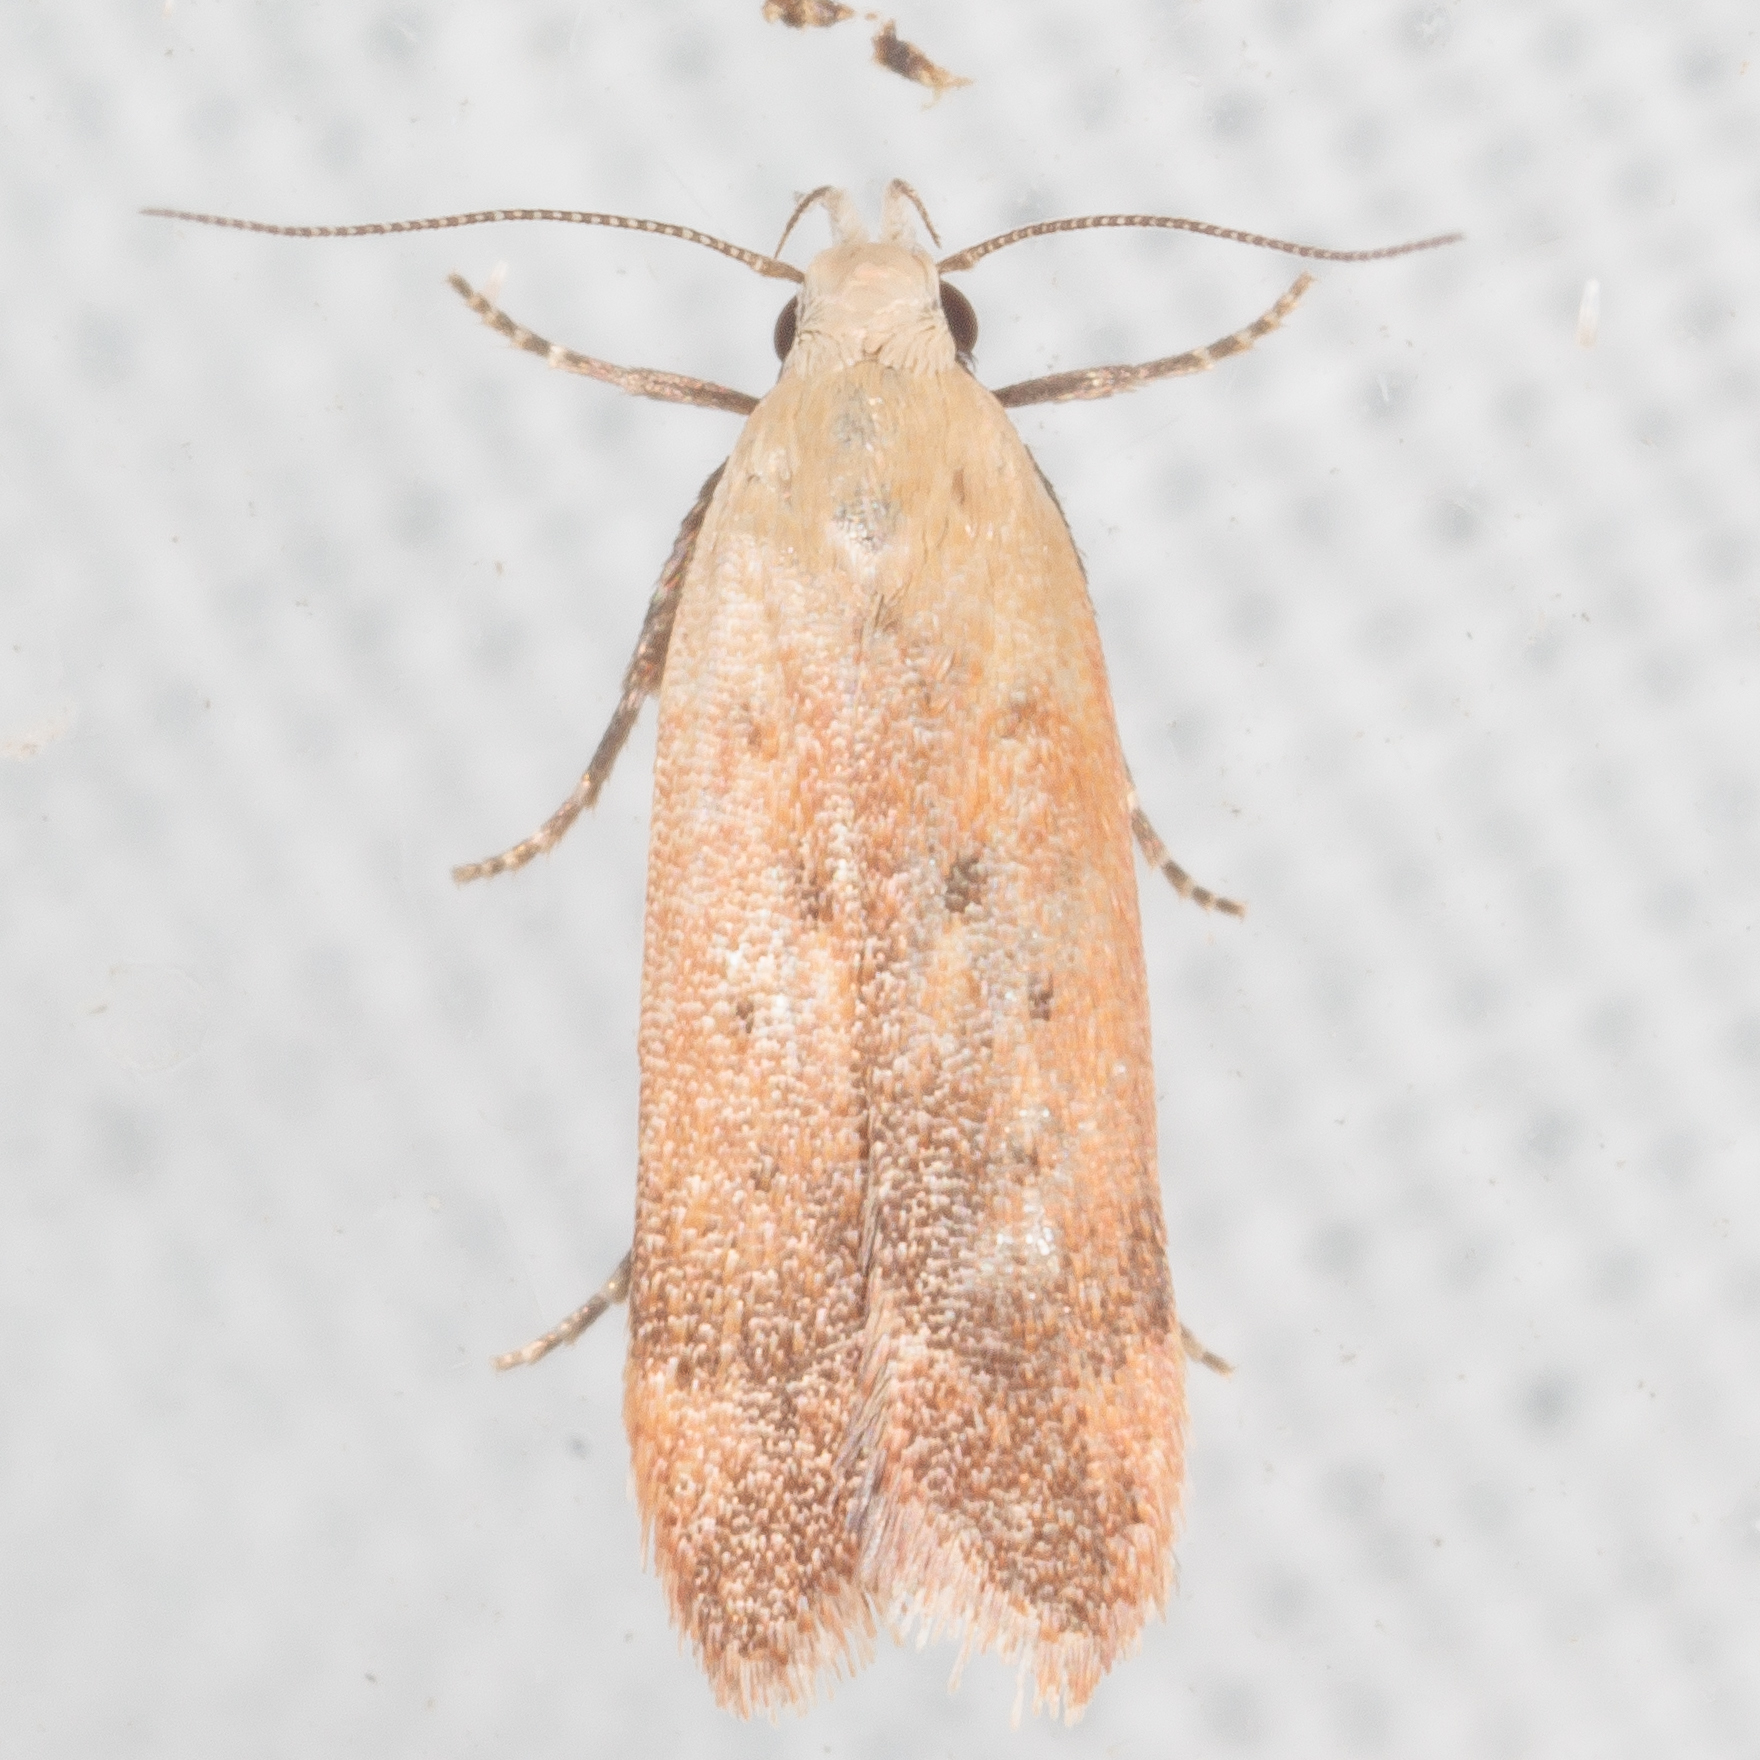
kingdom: Animalia
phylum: Arthropoda
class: Insecta
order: Lepidoptera
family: Gelechiidae
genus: Anacampsis
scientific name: Anacampsis fullonella
